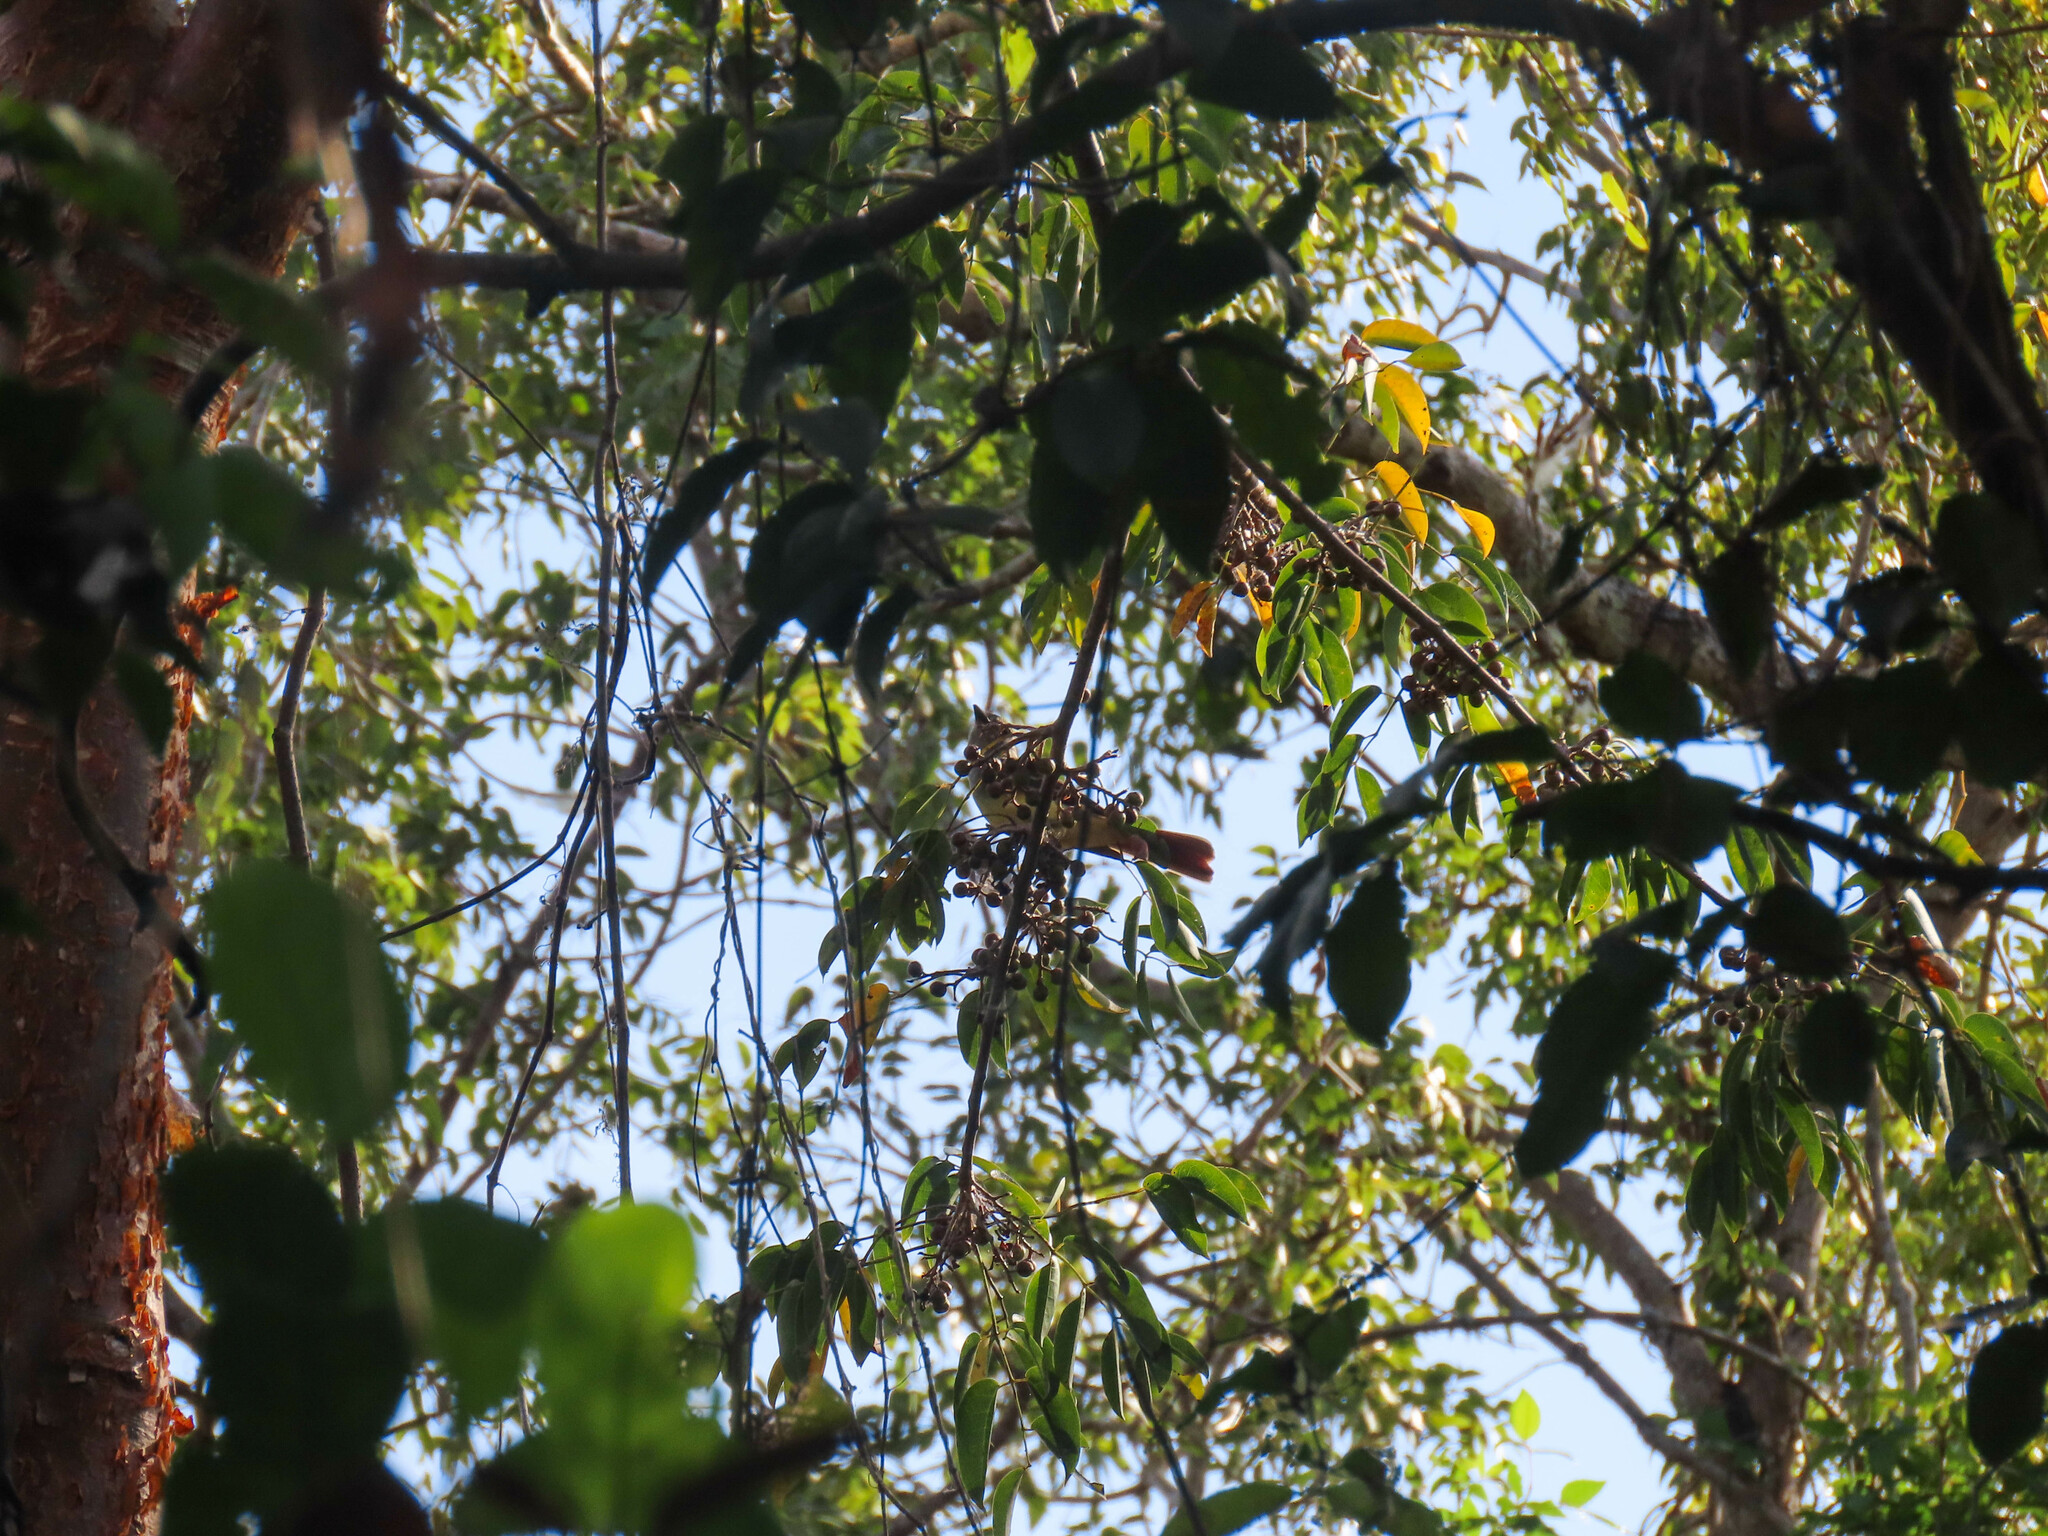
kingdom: Animalia
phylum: Chordata
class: Aves
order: Passeriformes
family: Tyrannidae
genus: Myiarchus
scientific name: Myiarchus crinitus
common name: Great crested flycatcher
